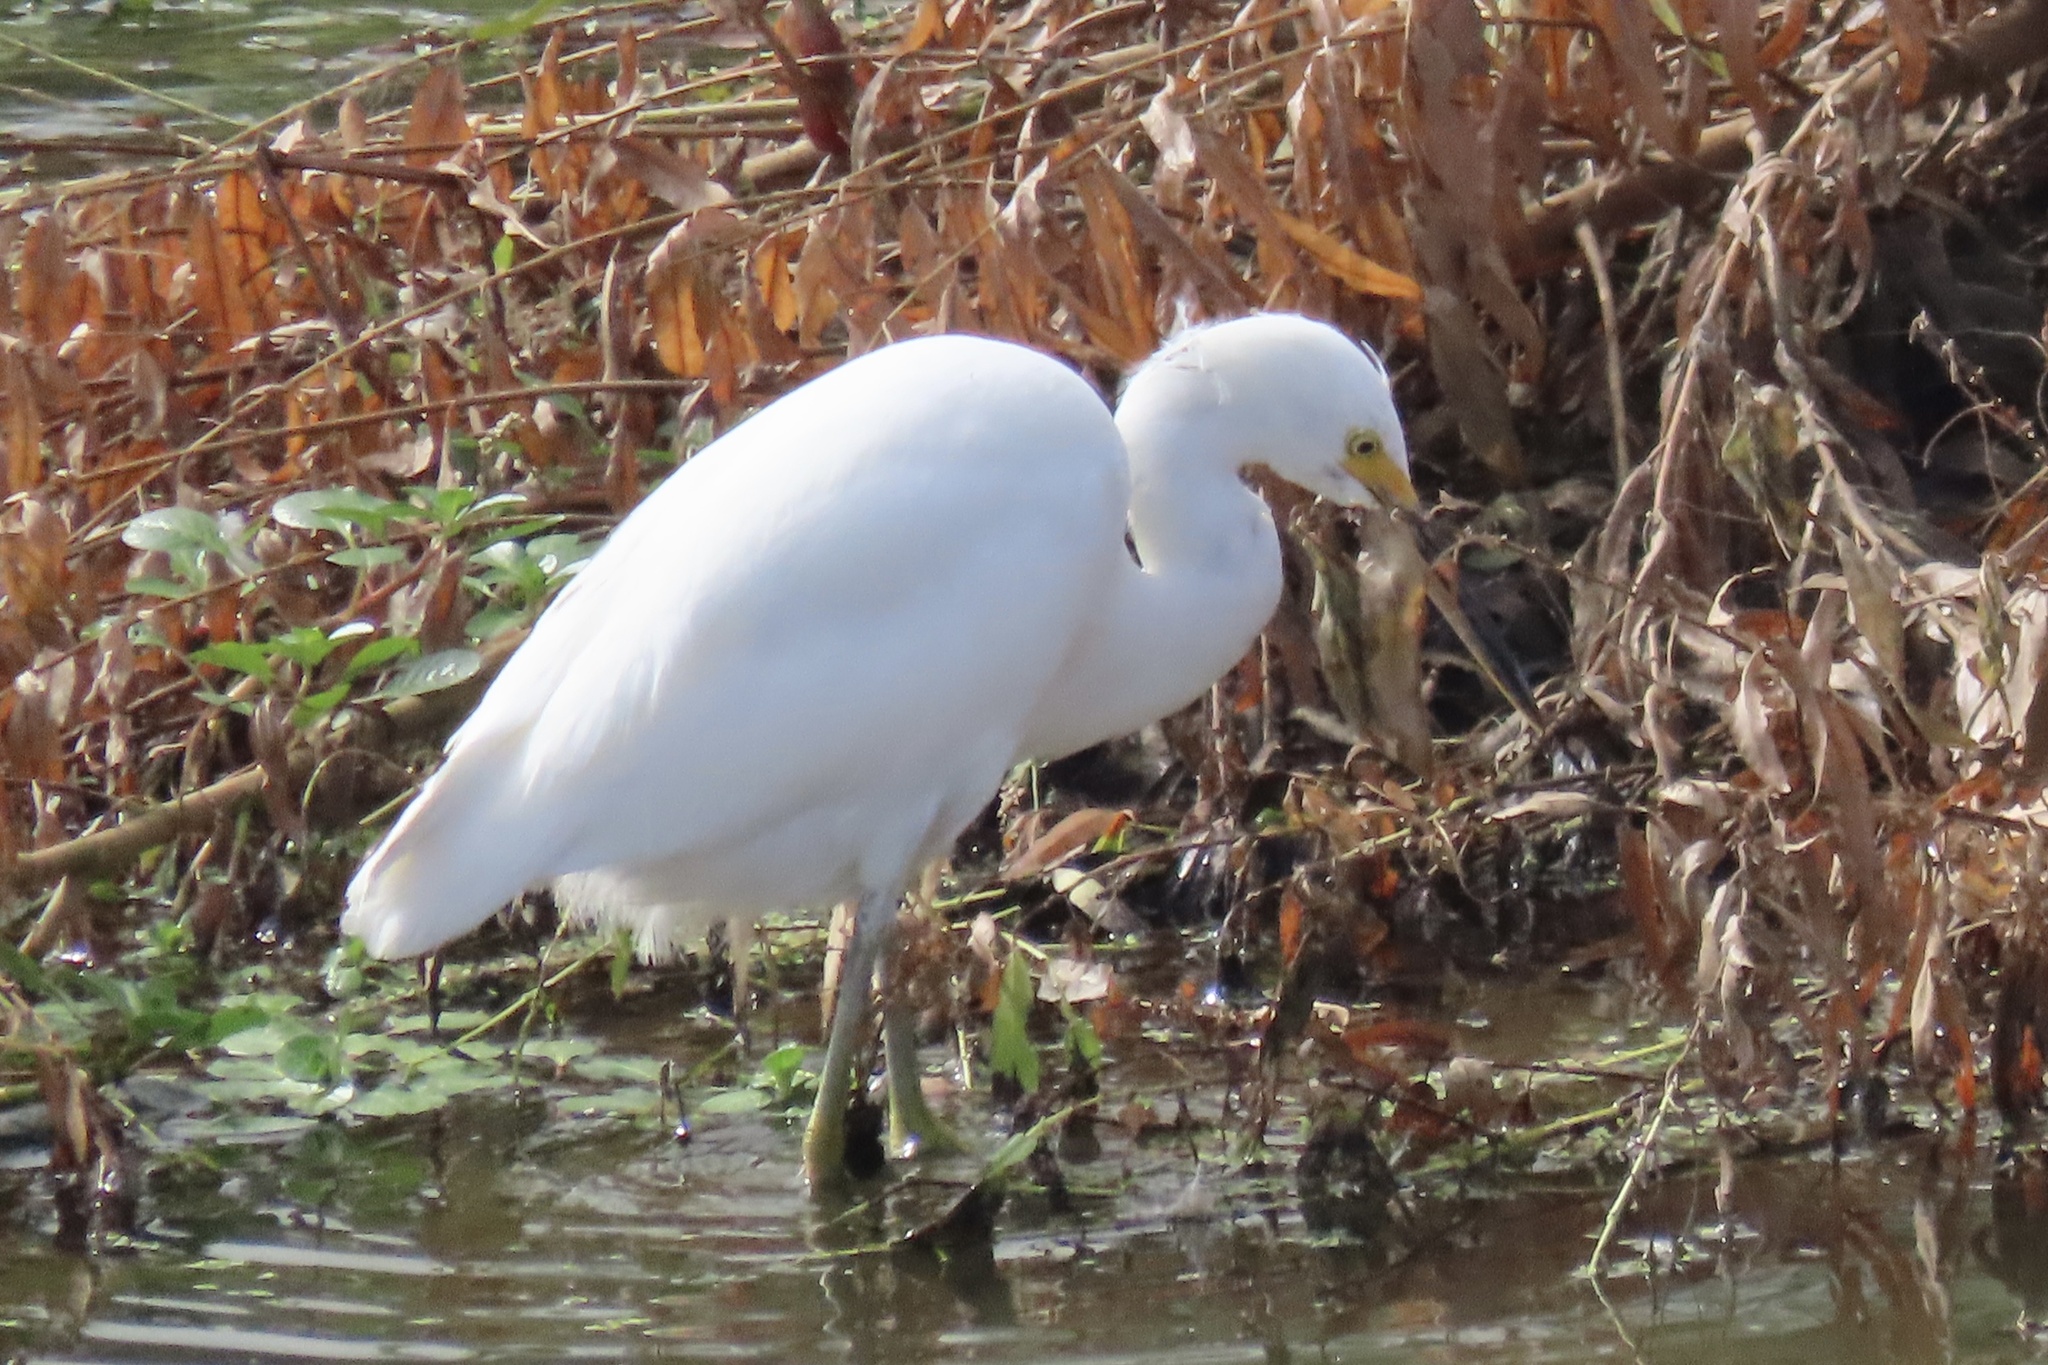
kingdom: Animalia
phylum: Chordata
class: Aves
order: Pelecaniformes
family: Ardeidae
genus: Egretta
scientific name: Egretta thula
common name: Snowy egret
